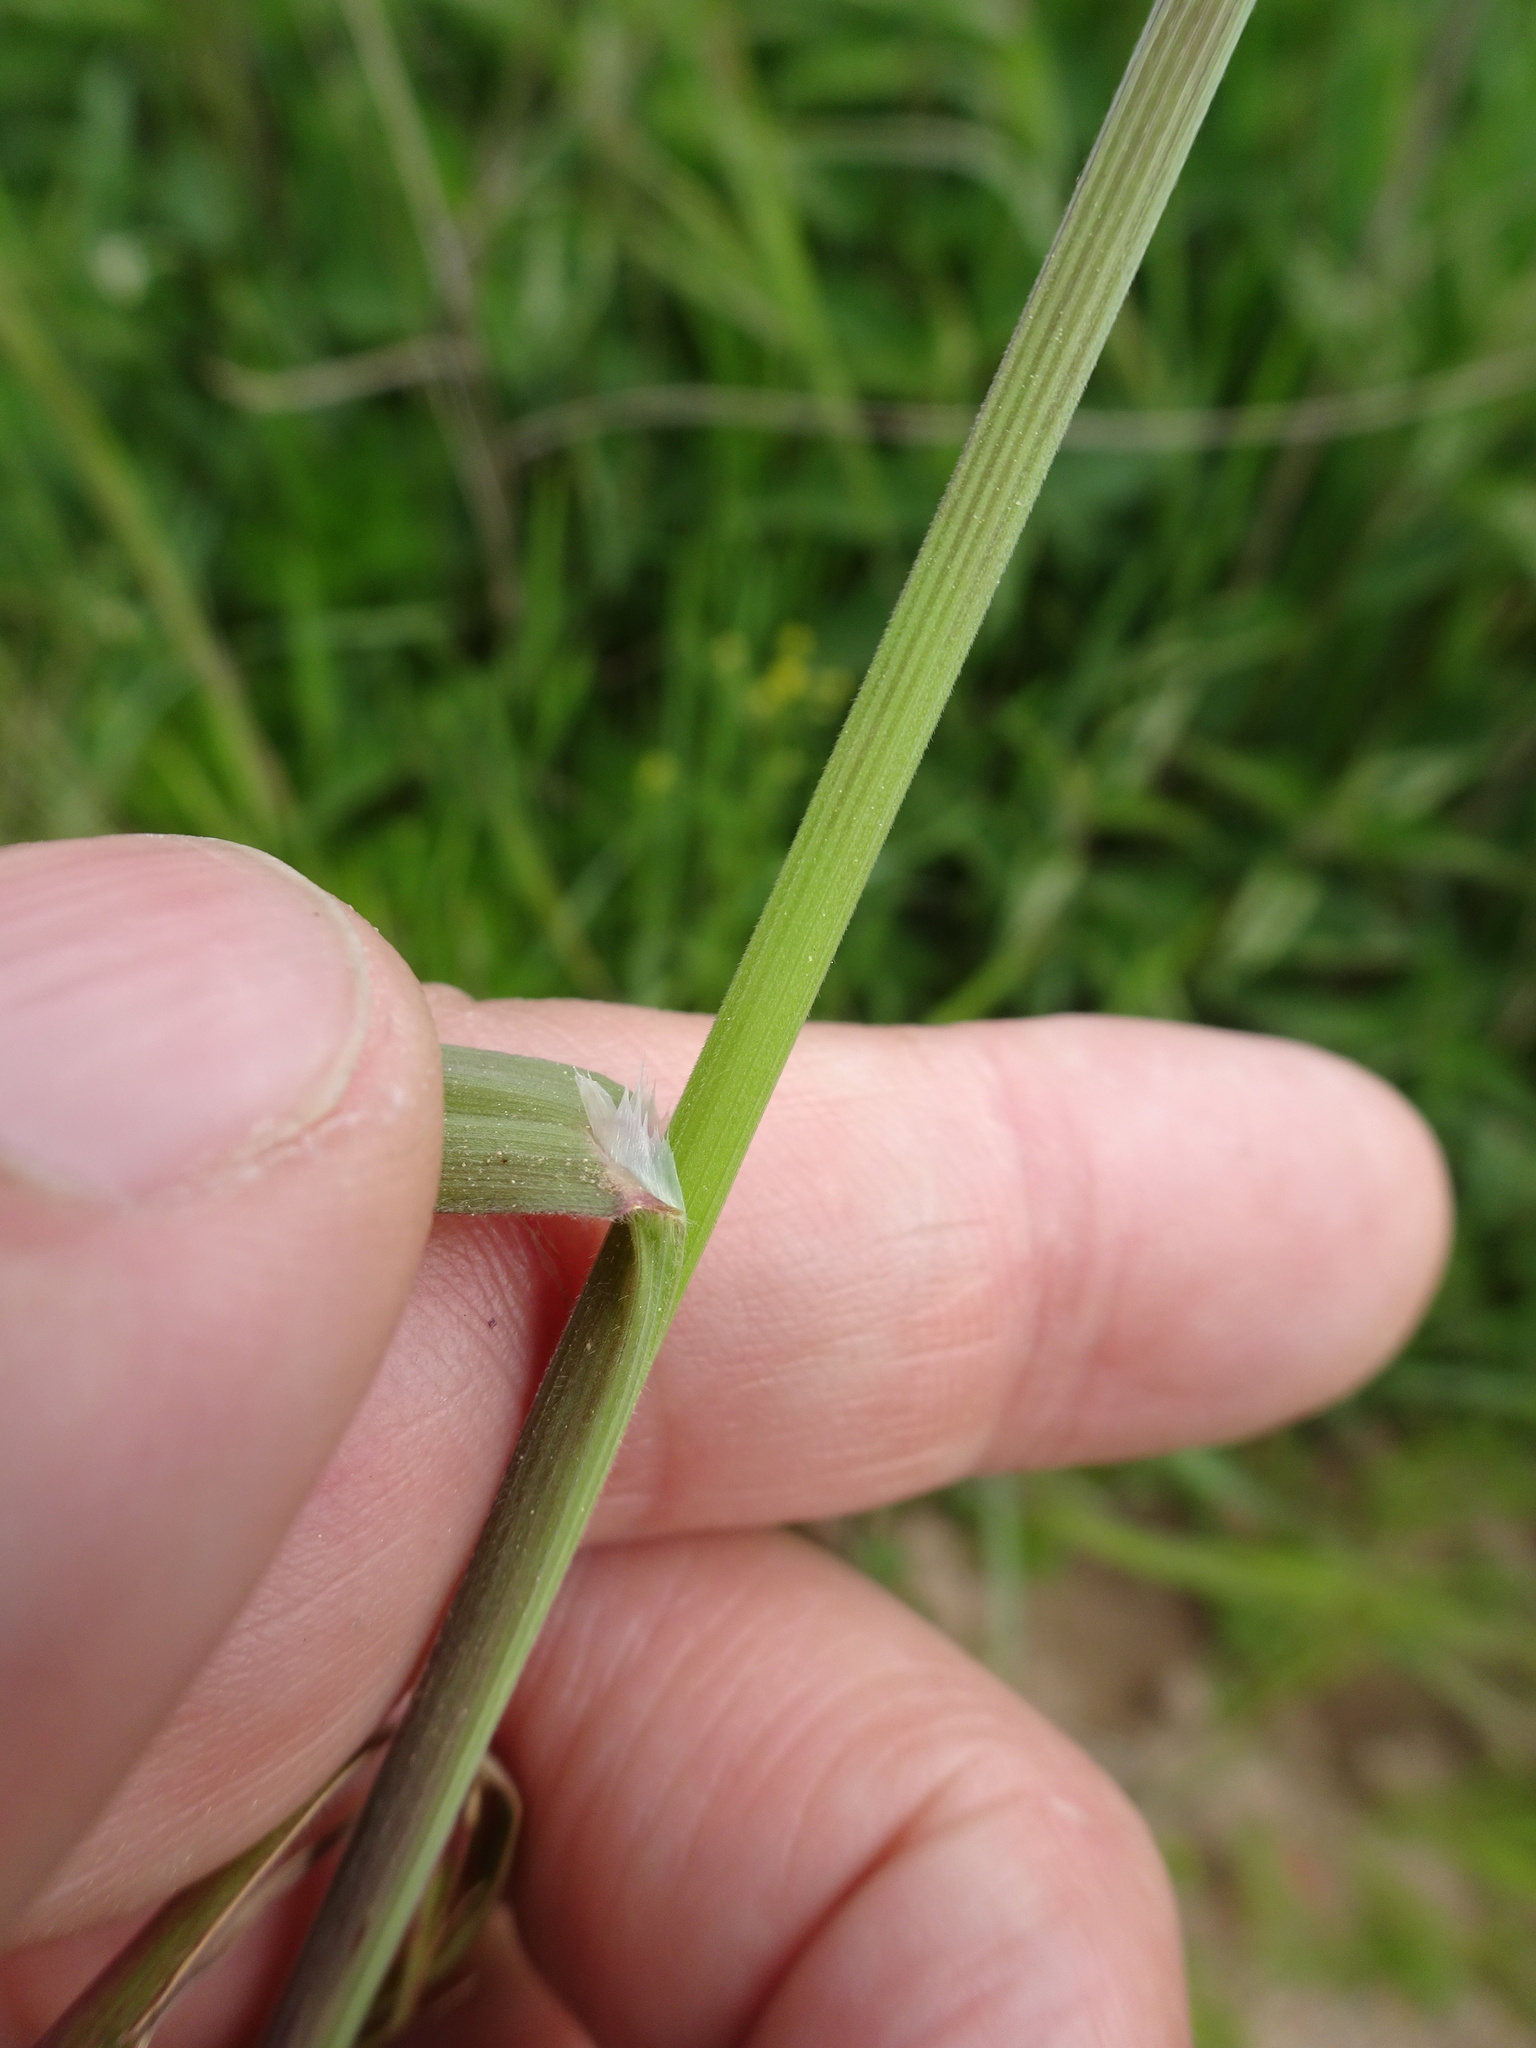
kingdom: Plantae
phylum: Tracheophyta
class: Liliopsida
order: Poales
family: Poaceae
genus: Bromus
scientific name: Bromus sterilis
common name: Poverty brome
